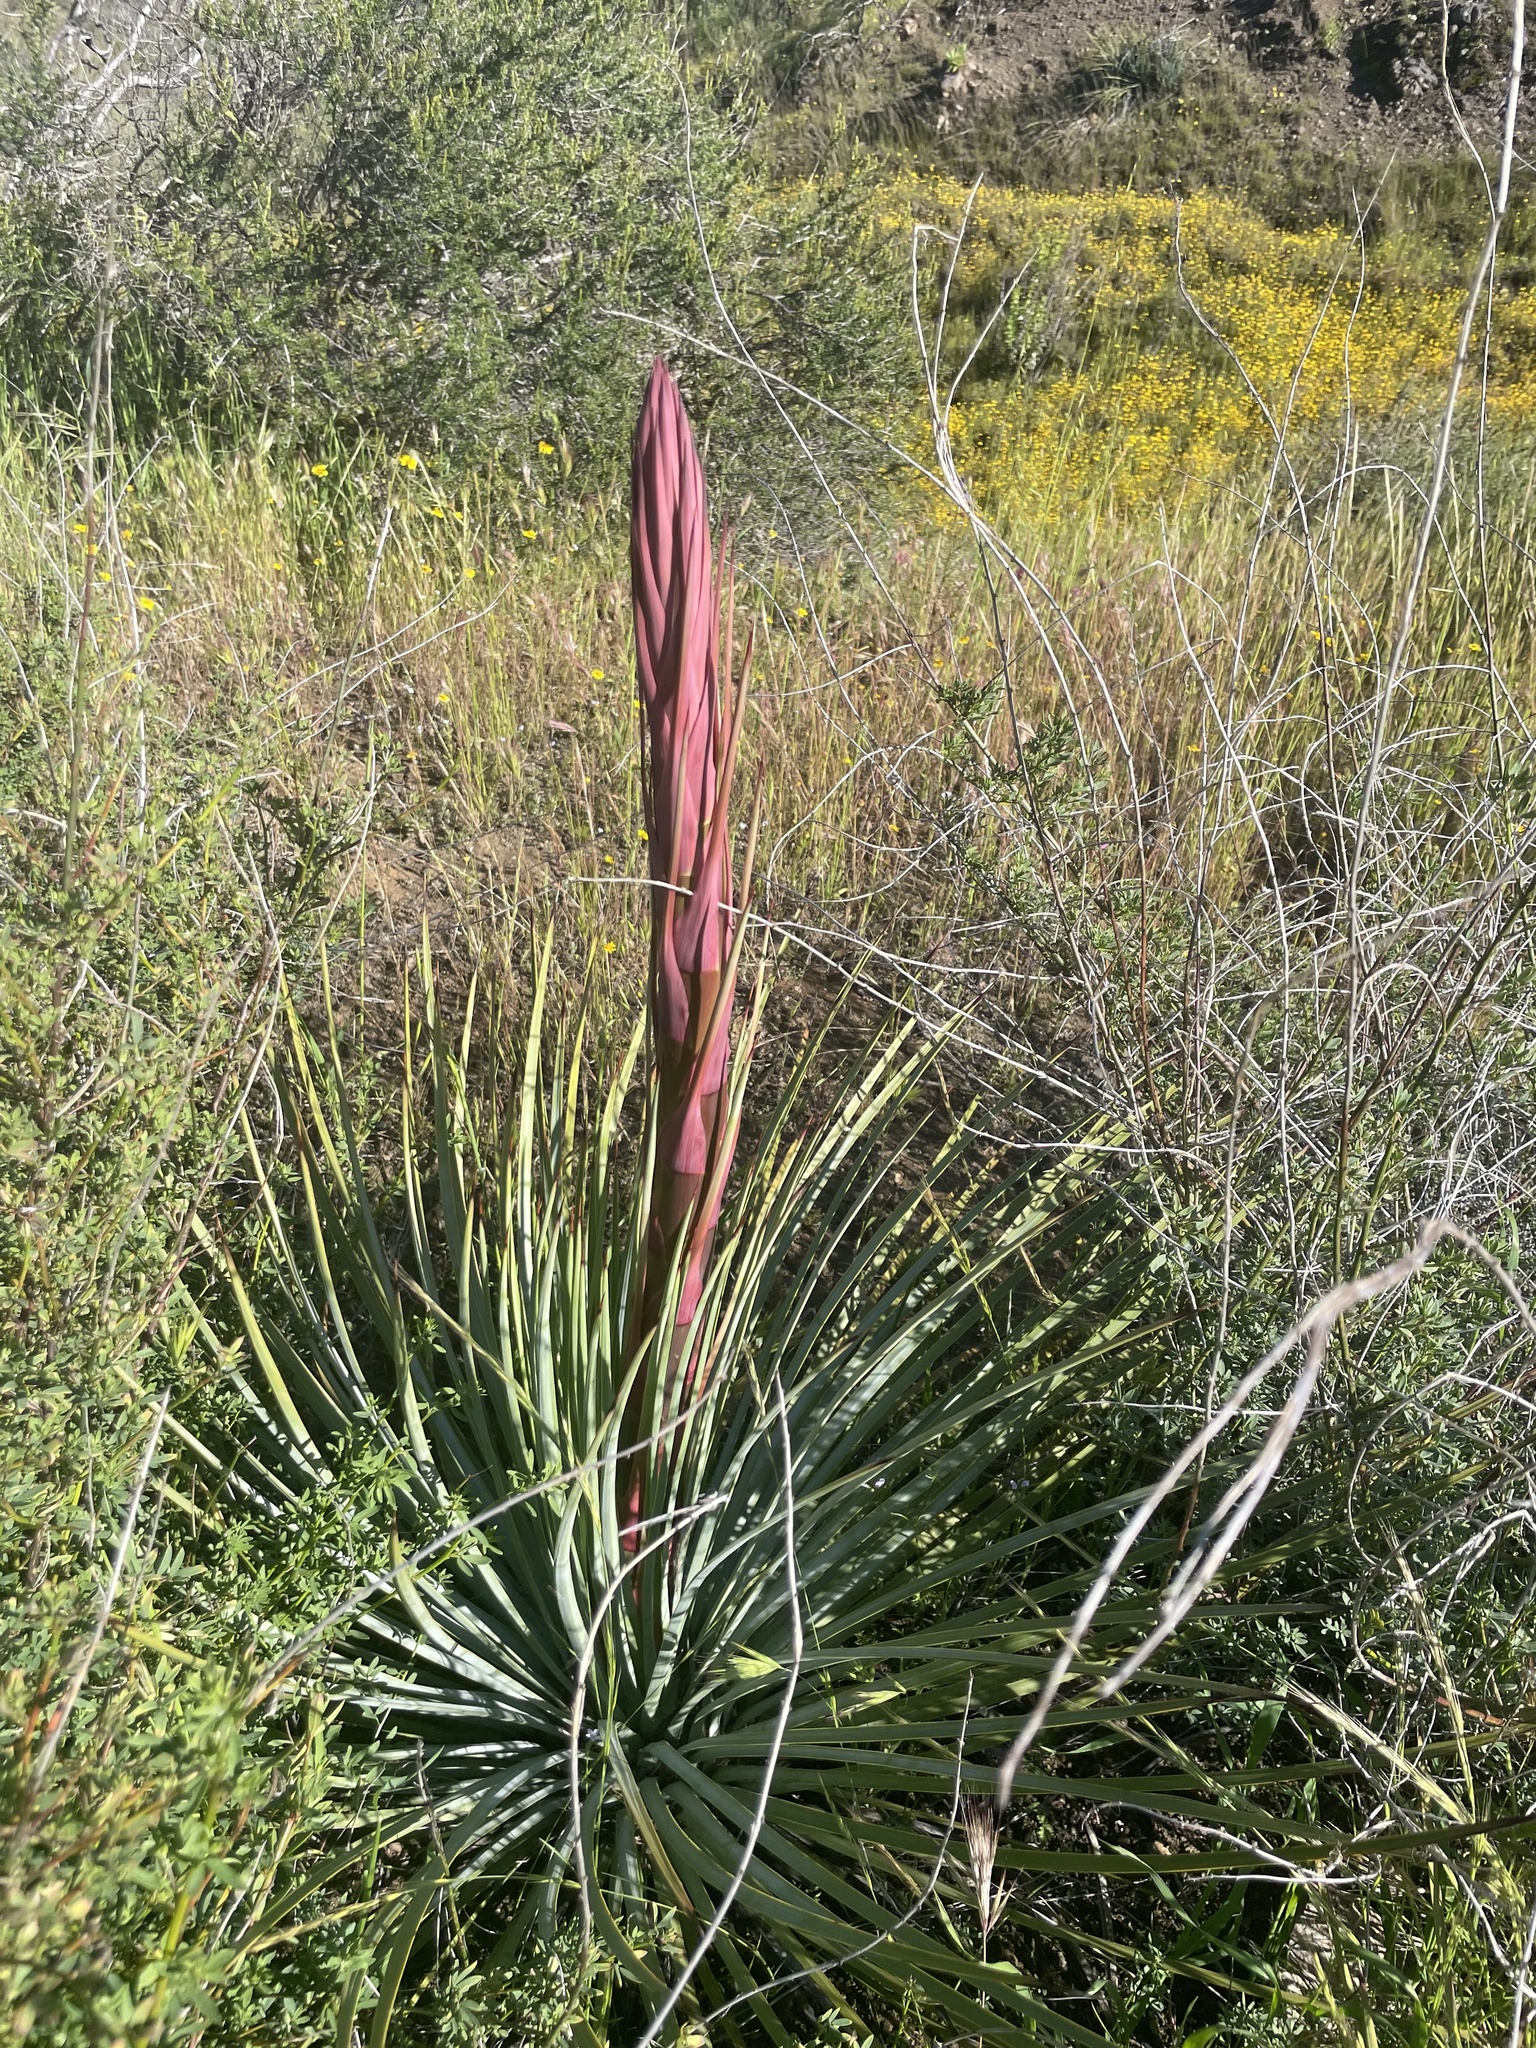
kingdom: Plantae
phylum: Tracheophyta
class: Liliopsida
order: Asparagales
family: Asparagaceae
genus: Hesperoyucca
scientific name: Hesperoyucca whipplei
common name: Our lord's-candle
